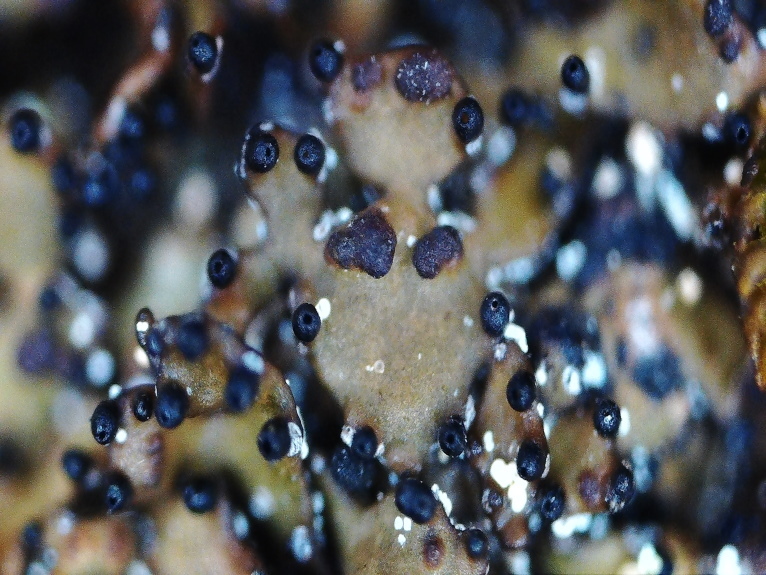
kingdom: Fungi
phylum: Ascomycota
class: Lecanoromycetes
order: Lecanorales
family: Parmeliaceae
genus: Melanelia
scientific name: Melanelia hepatizon
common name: Rimmed camouflage lichen
